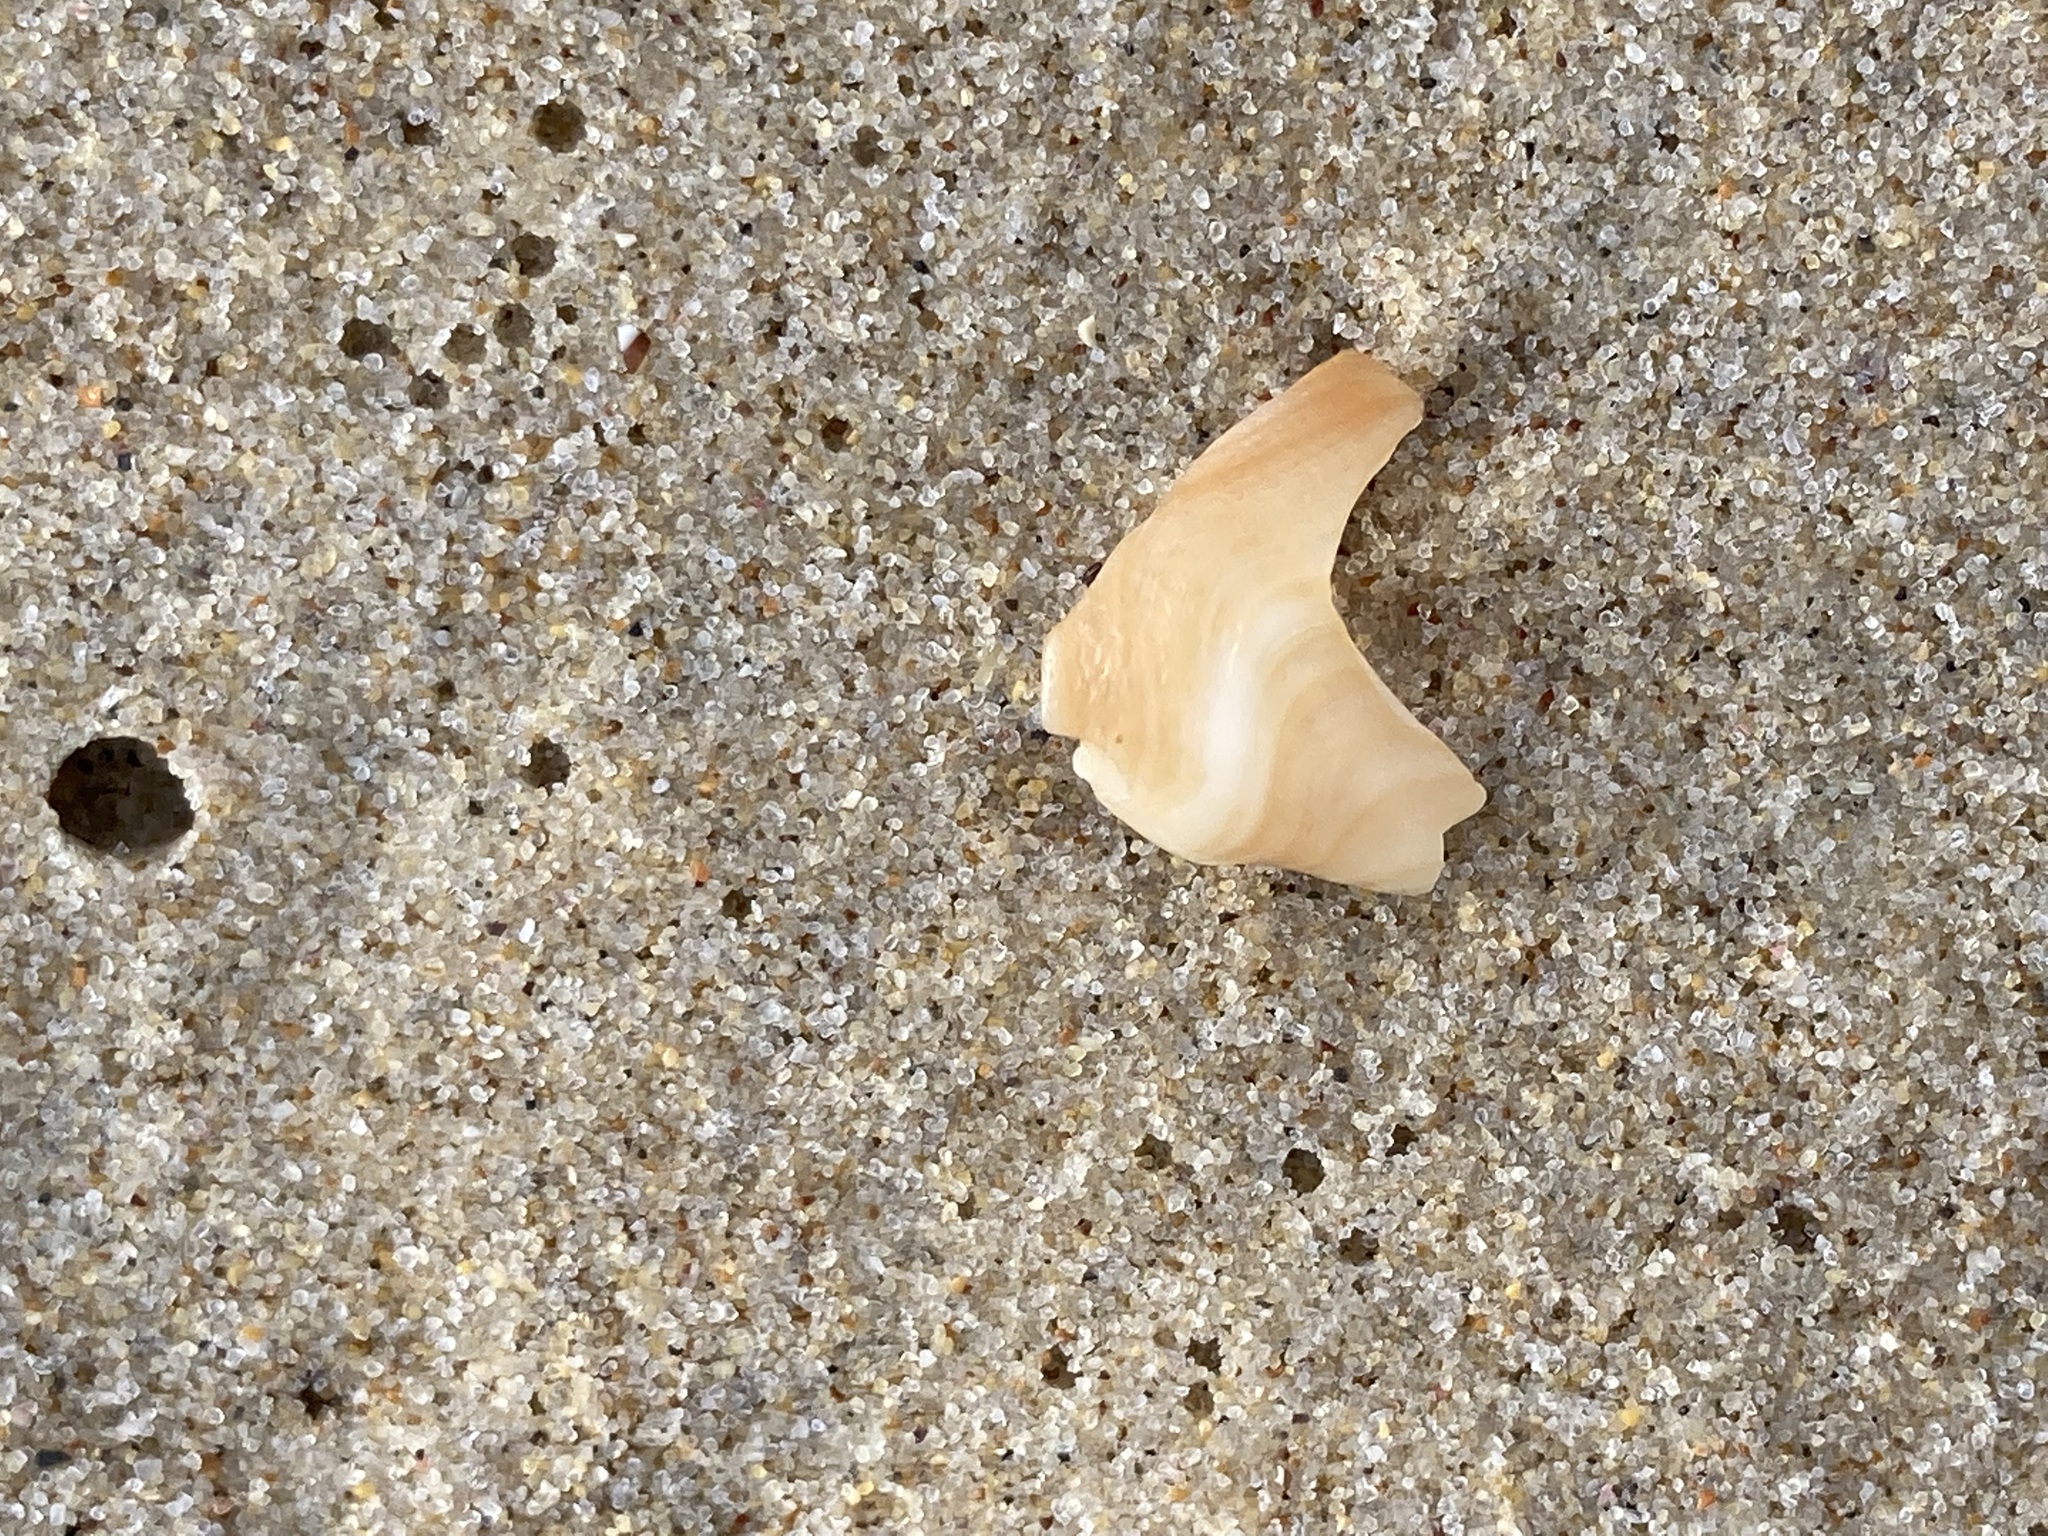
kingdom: Animalia
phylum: Mollusca
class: Gastropoda
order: Littorinimorpha
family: Struthiolariidae
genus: Tylospira
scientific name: Tylospira scutulata
